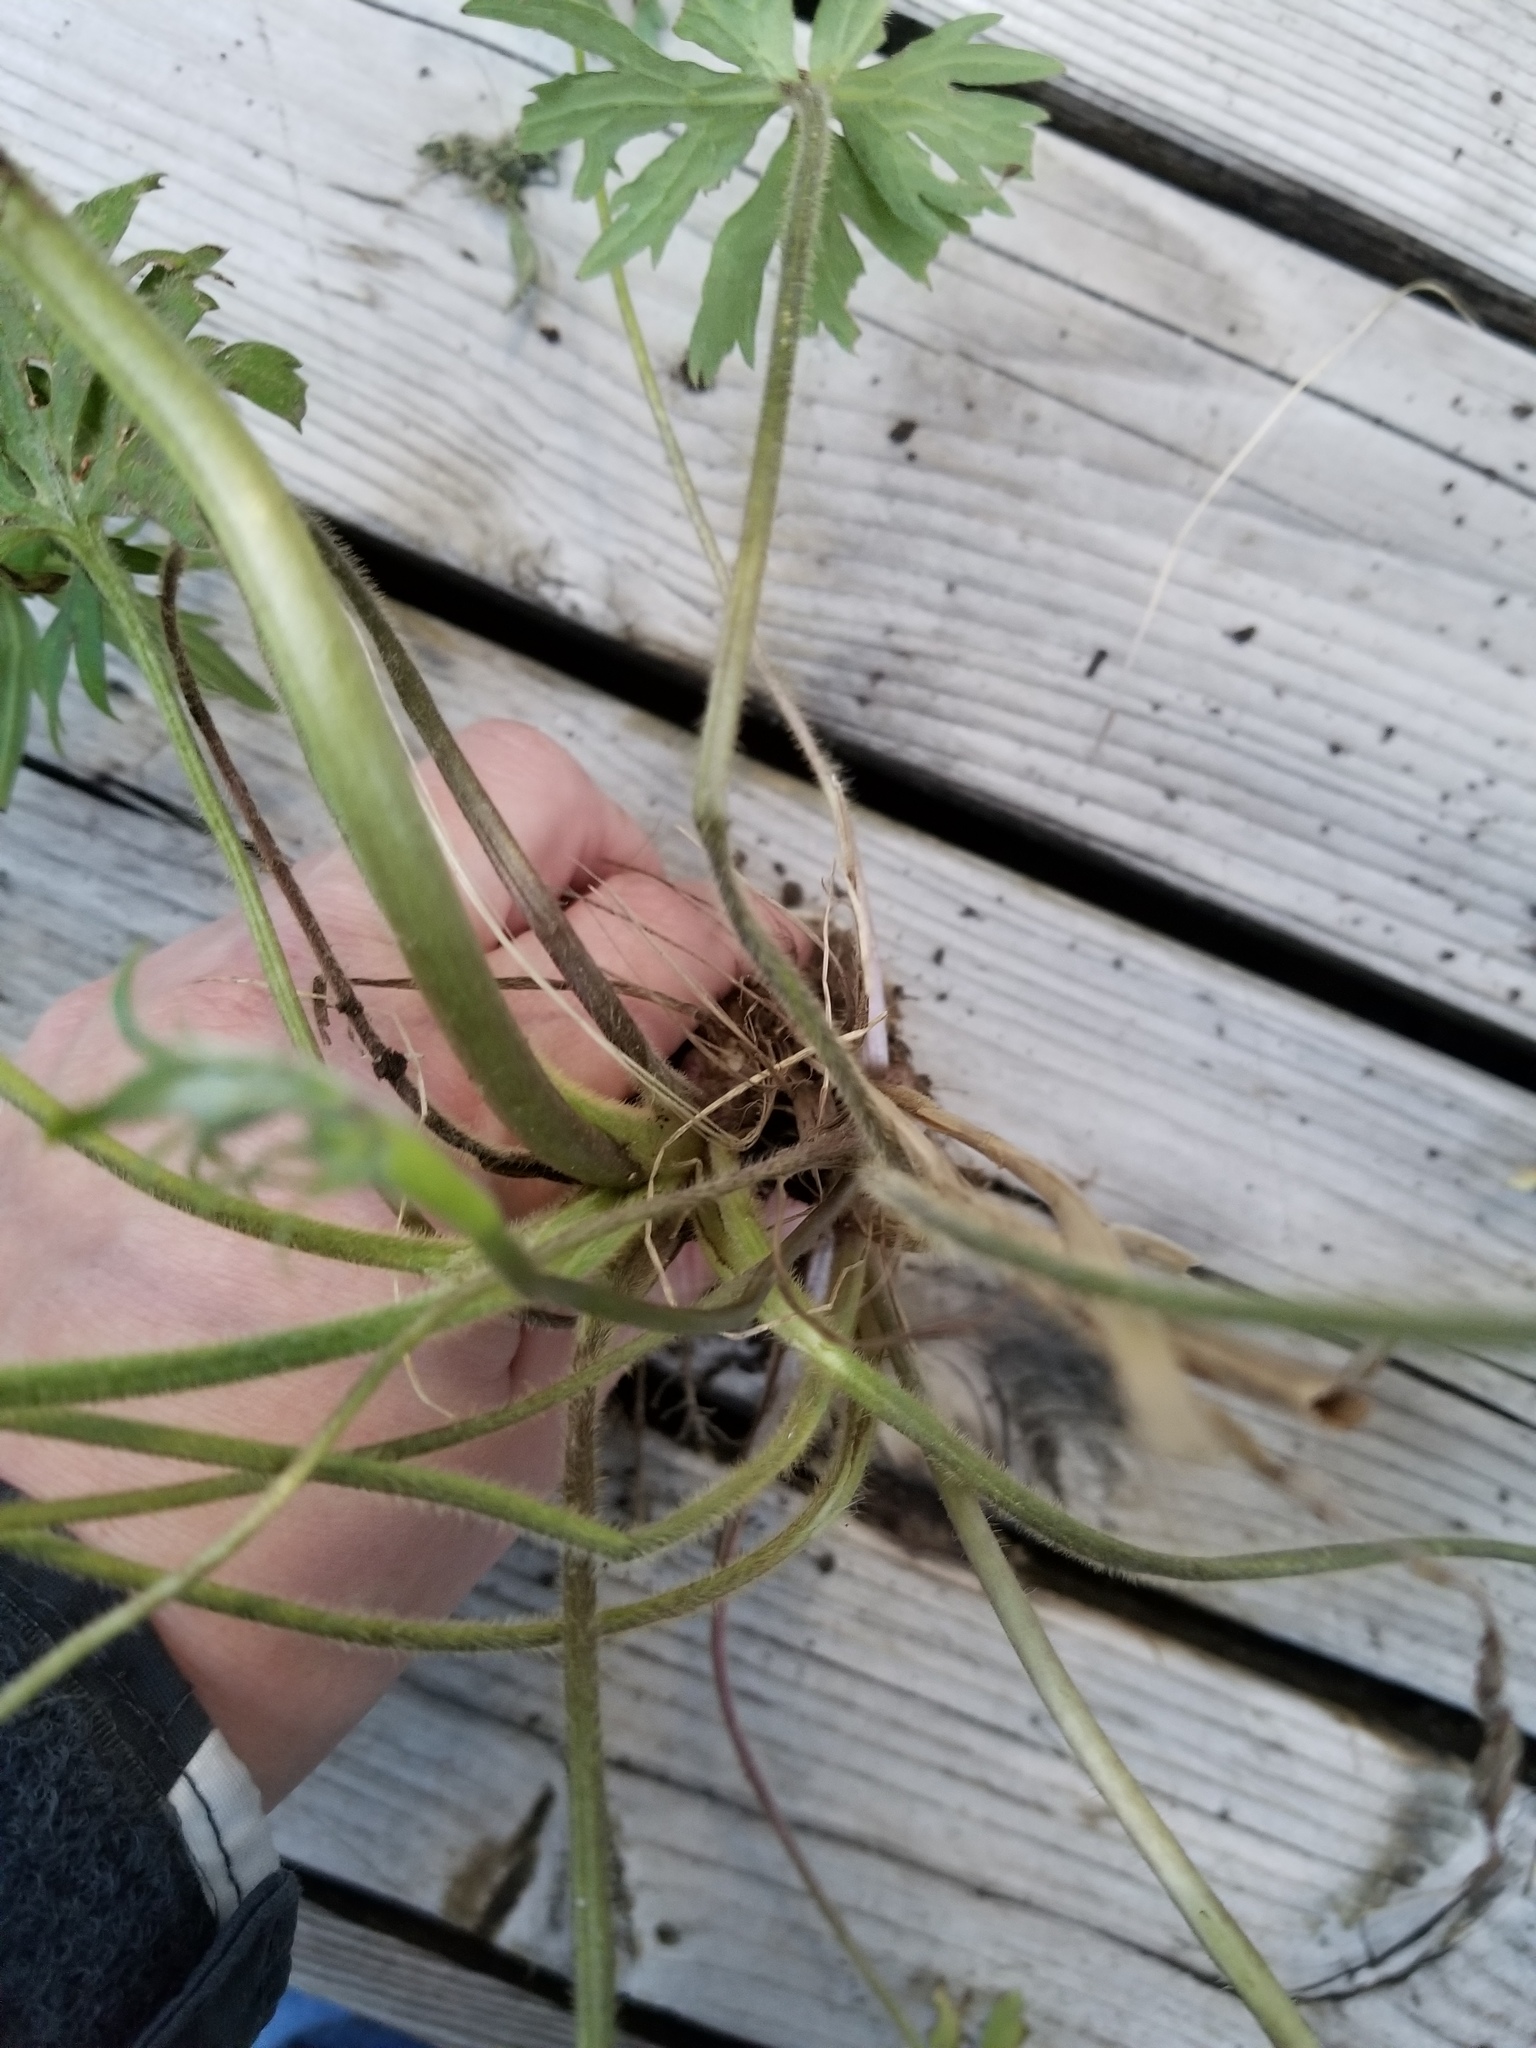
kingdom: Plantae
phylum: Tracheophyta
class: Magnoliopsida
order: Ranunculales
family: Ranunculaceae
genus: Ranunculus
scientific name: Ranunculus acris
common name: Meadow buttercup
